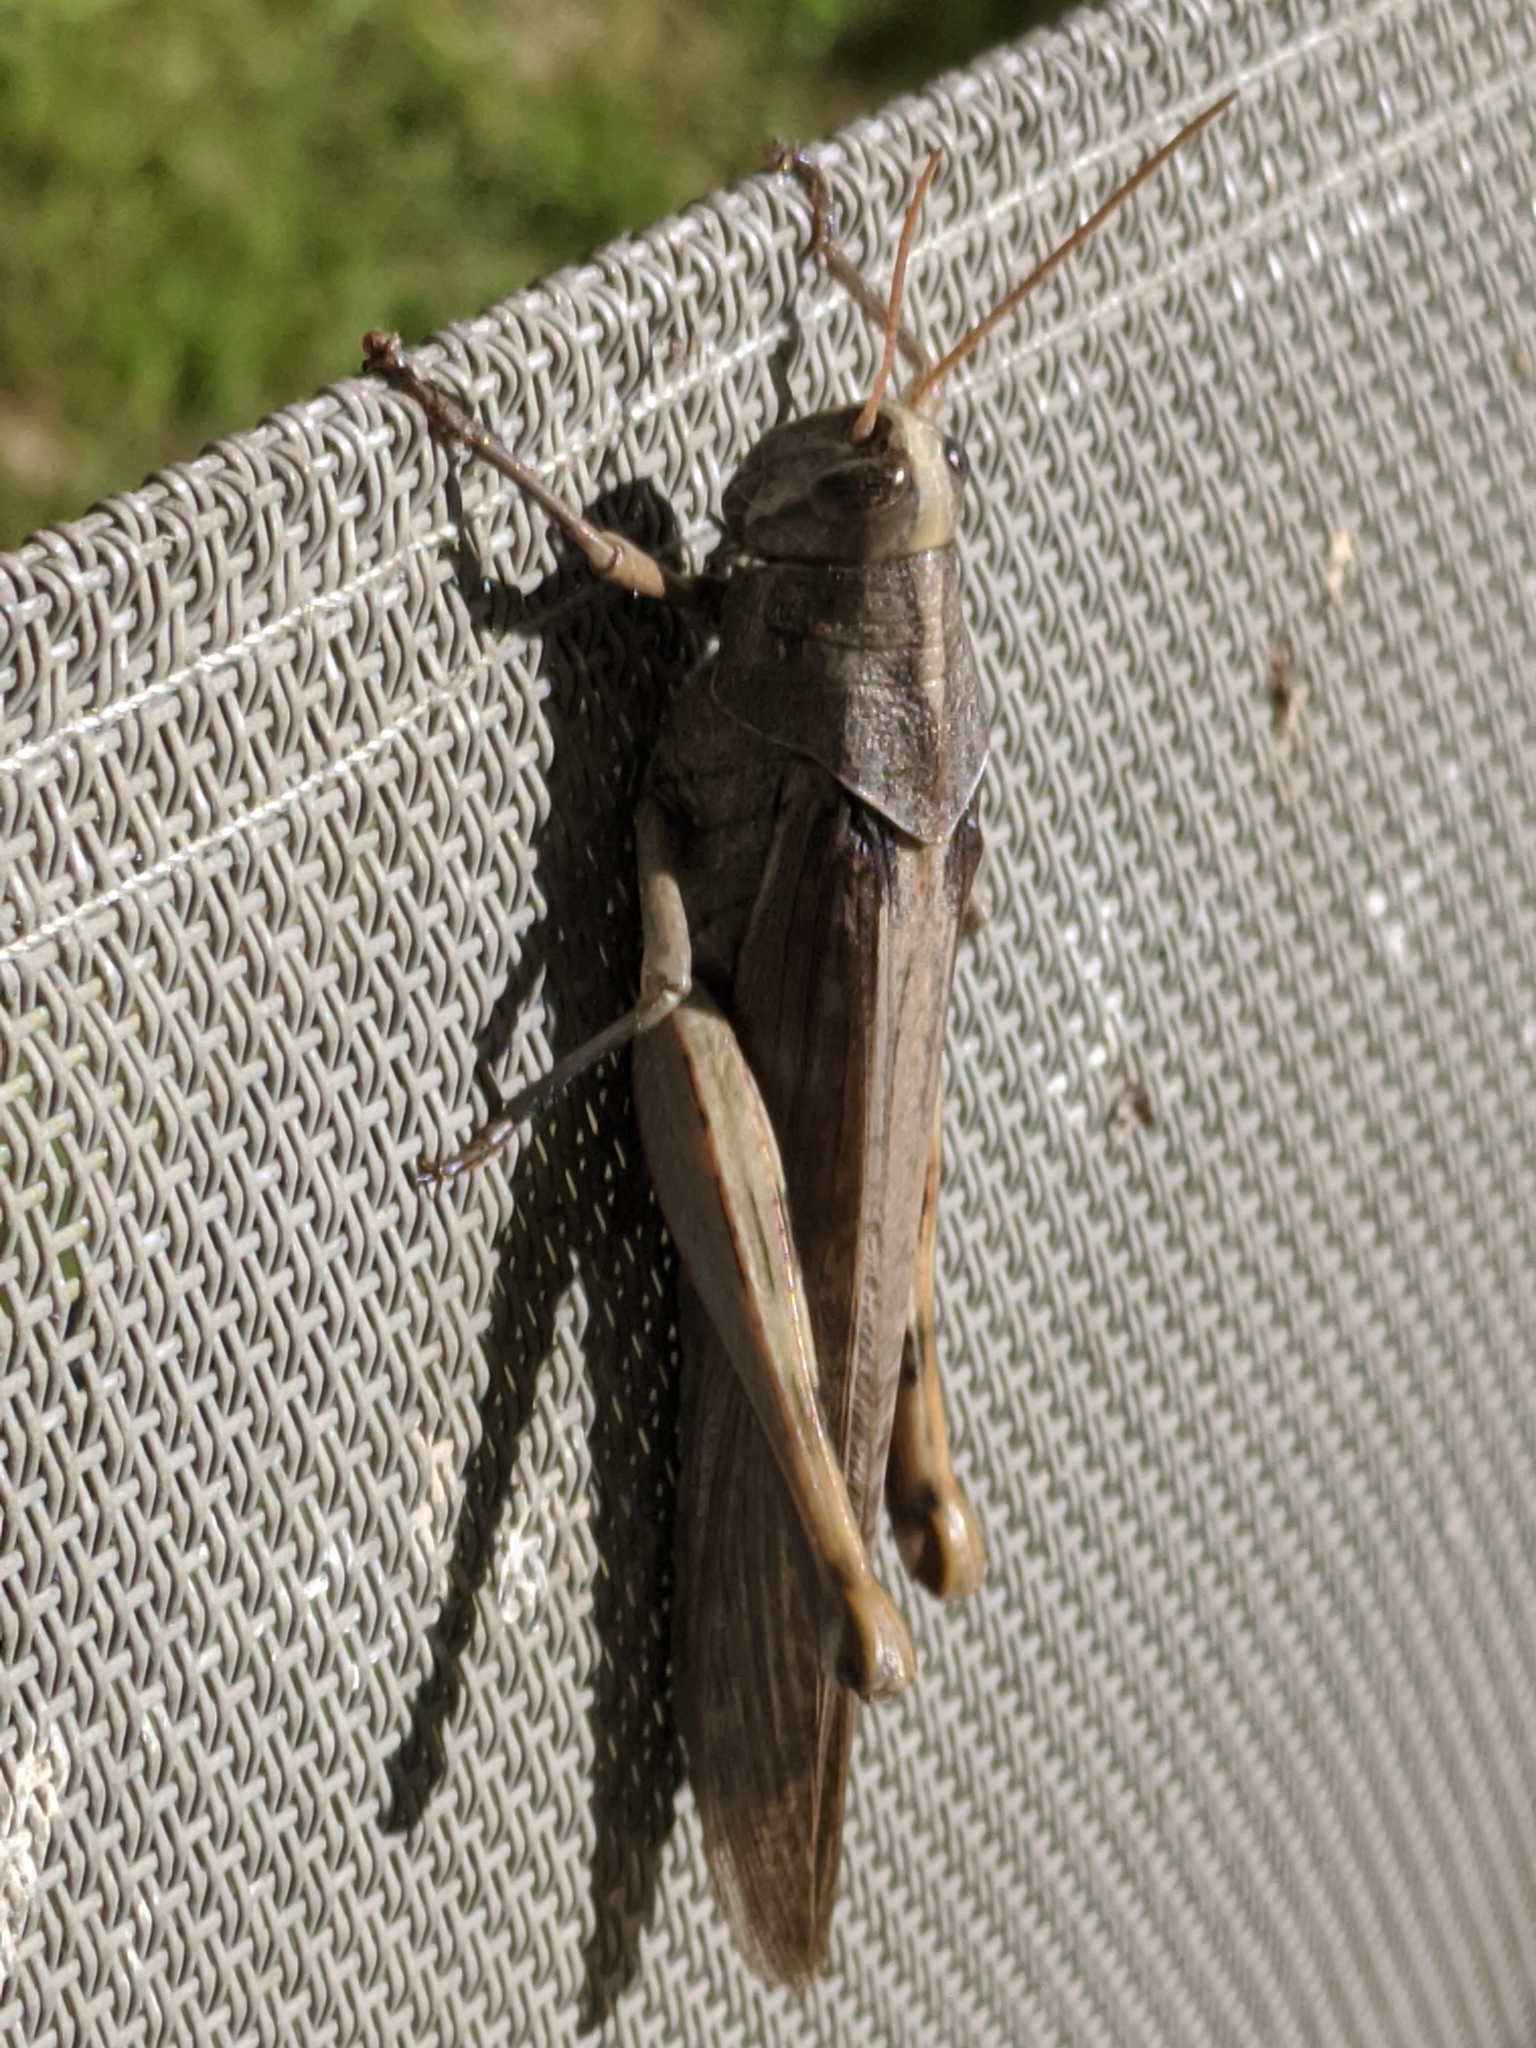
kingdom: Animalia
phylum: Arthropoda
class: Insecta
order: Orthoptera
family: Acrididae
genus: Schistocerca
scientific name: Schistocerca nitens
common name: Vagrant grasshopper
